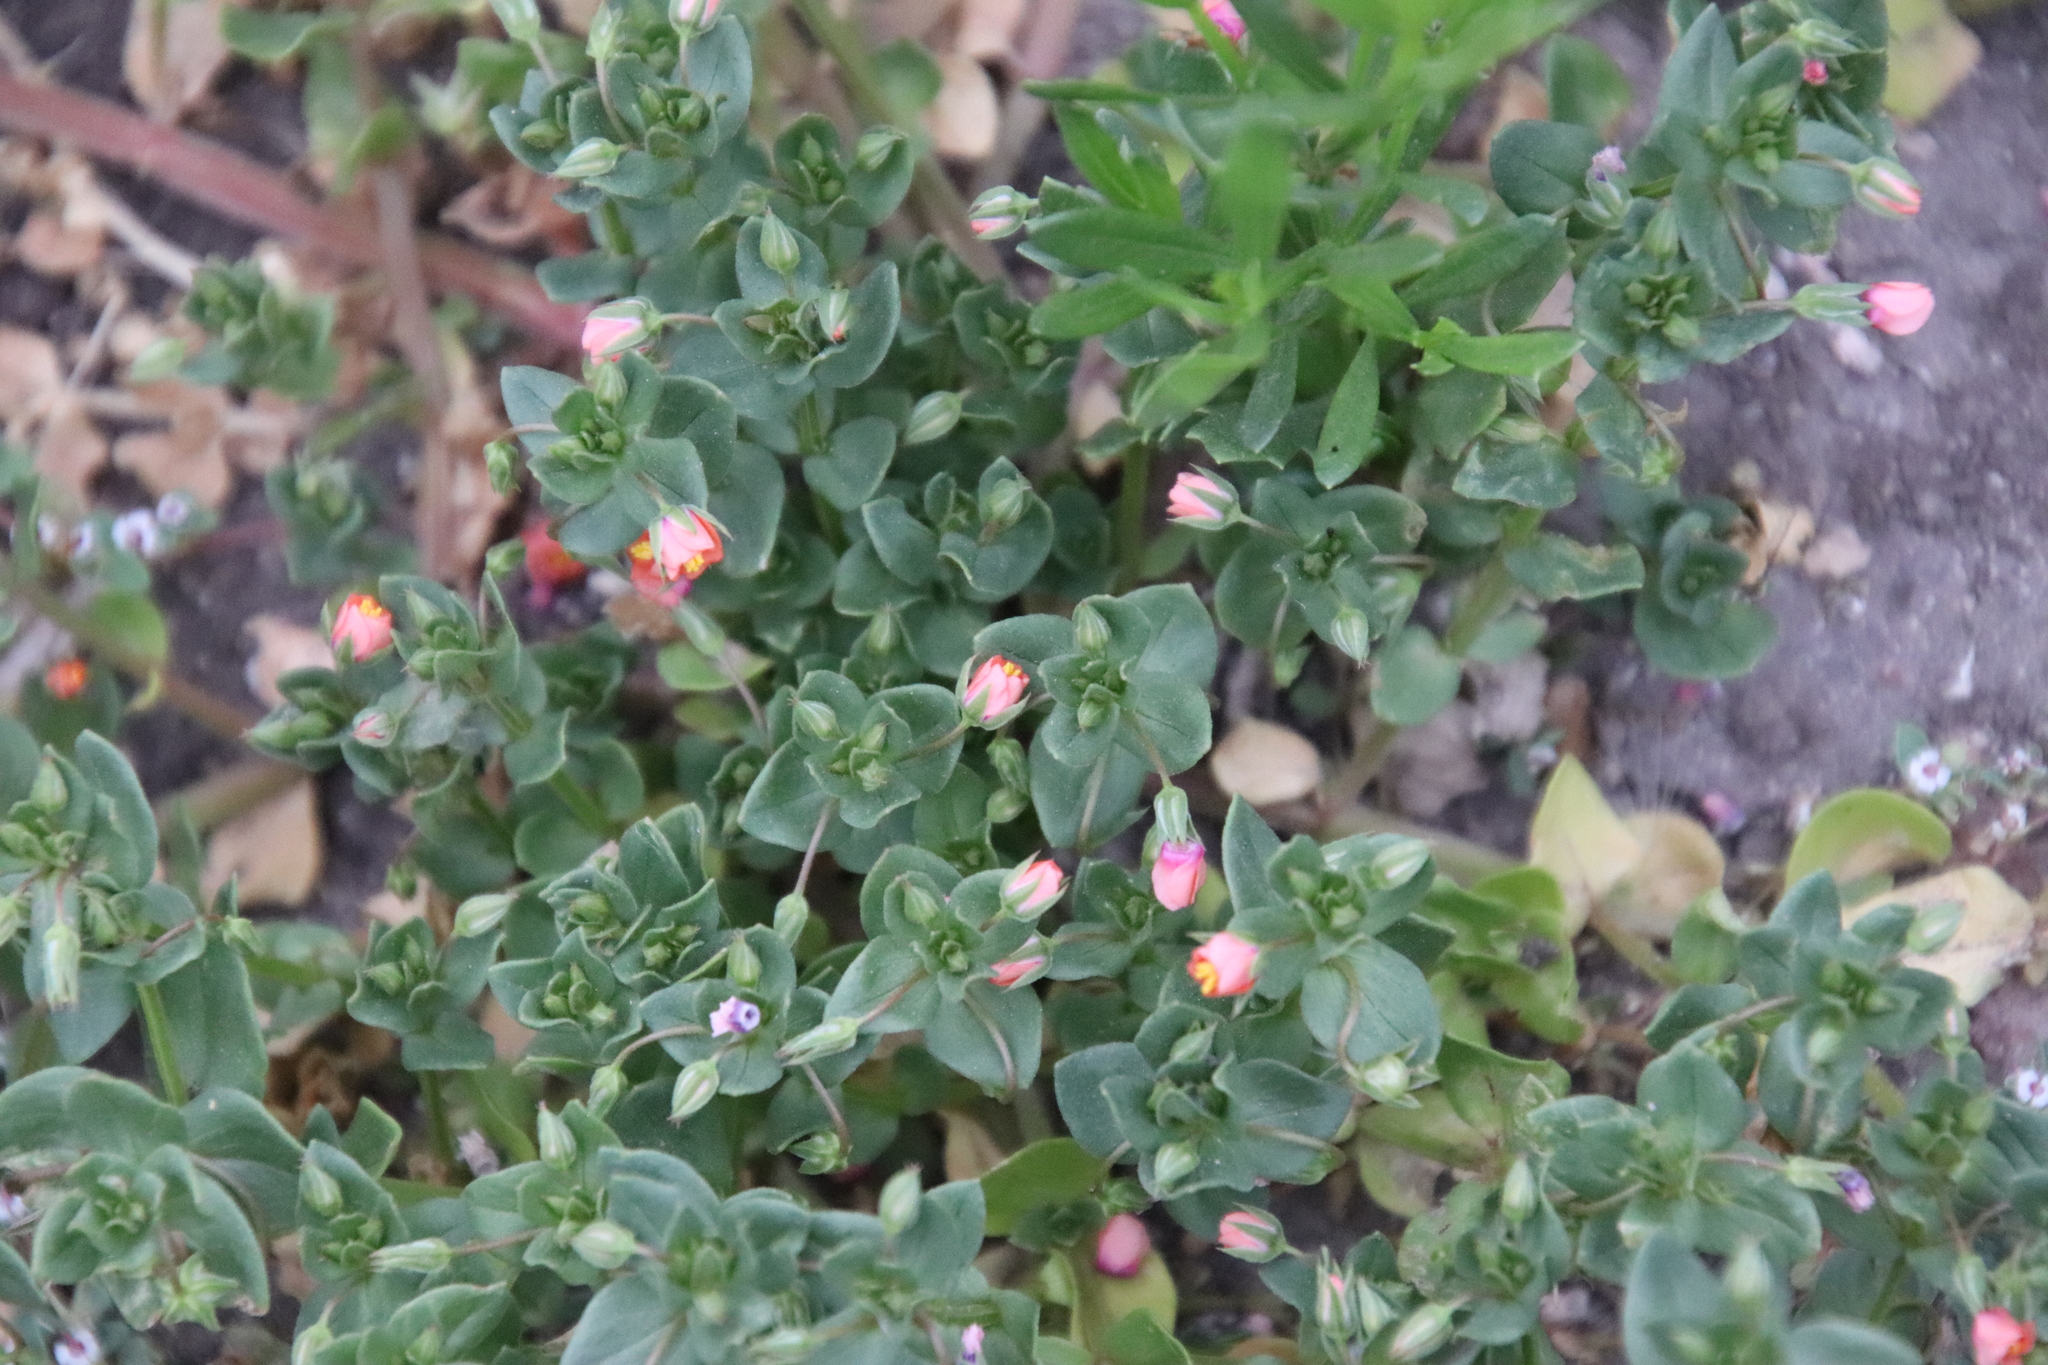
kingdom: Plantae
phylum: Tracheophyta
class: Magnoliopsida
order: Ericales
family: Primulaceae
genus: Lysimachia
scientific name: Lysimachia arvensis
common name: Scarlet pimpernel
